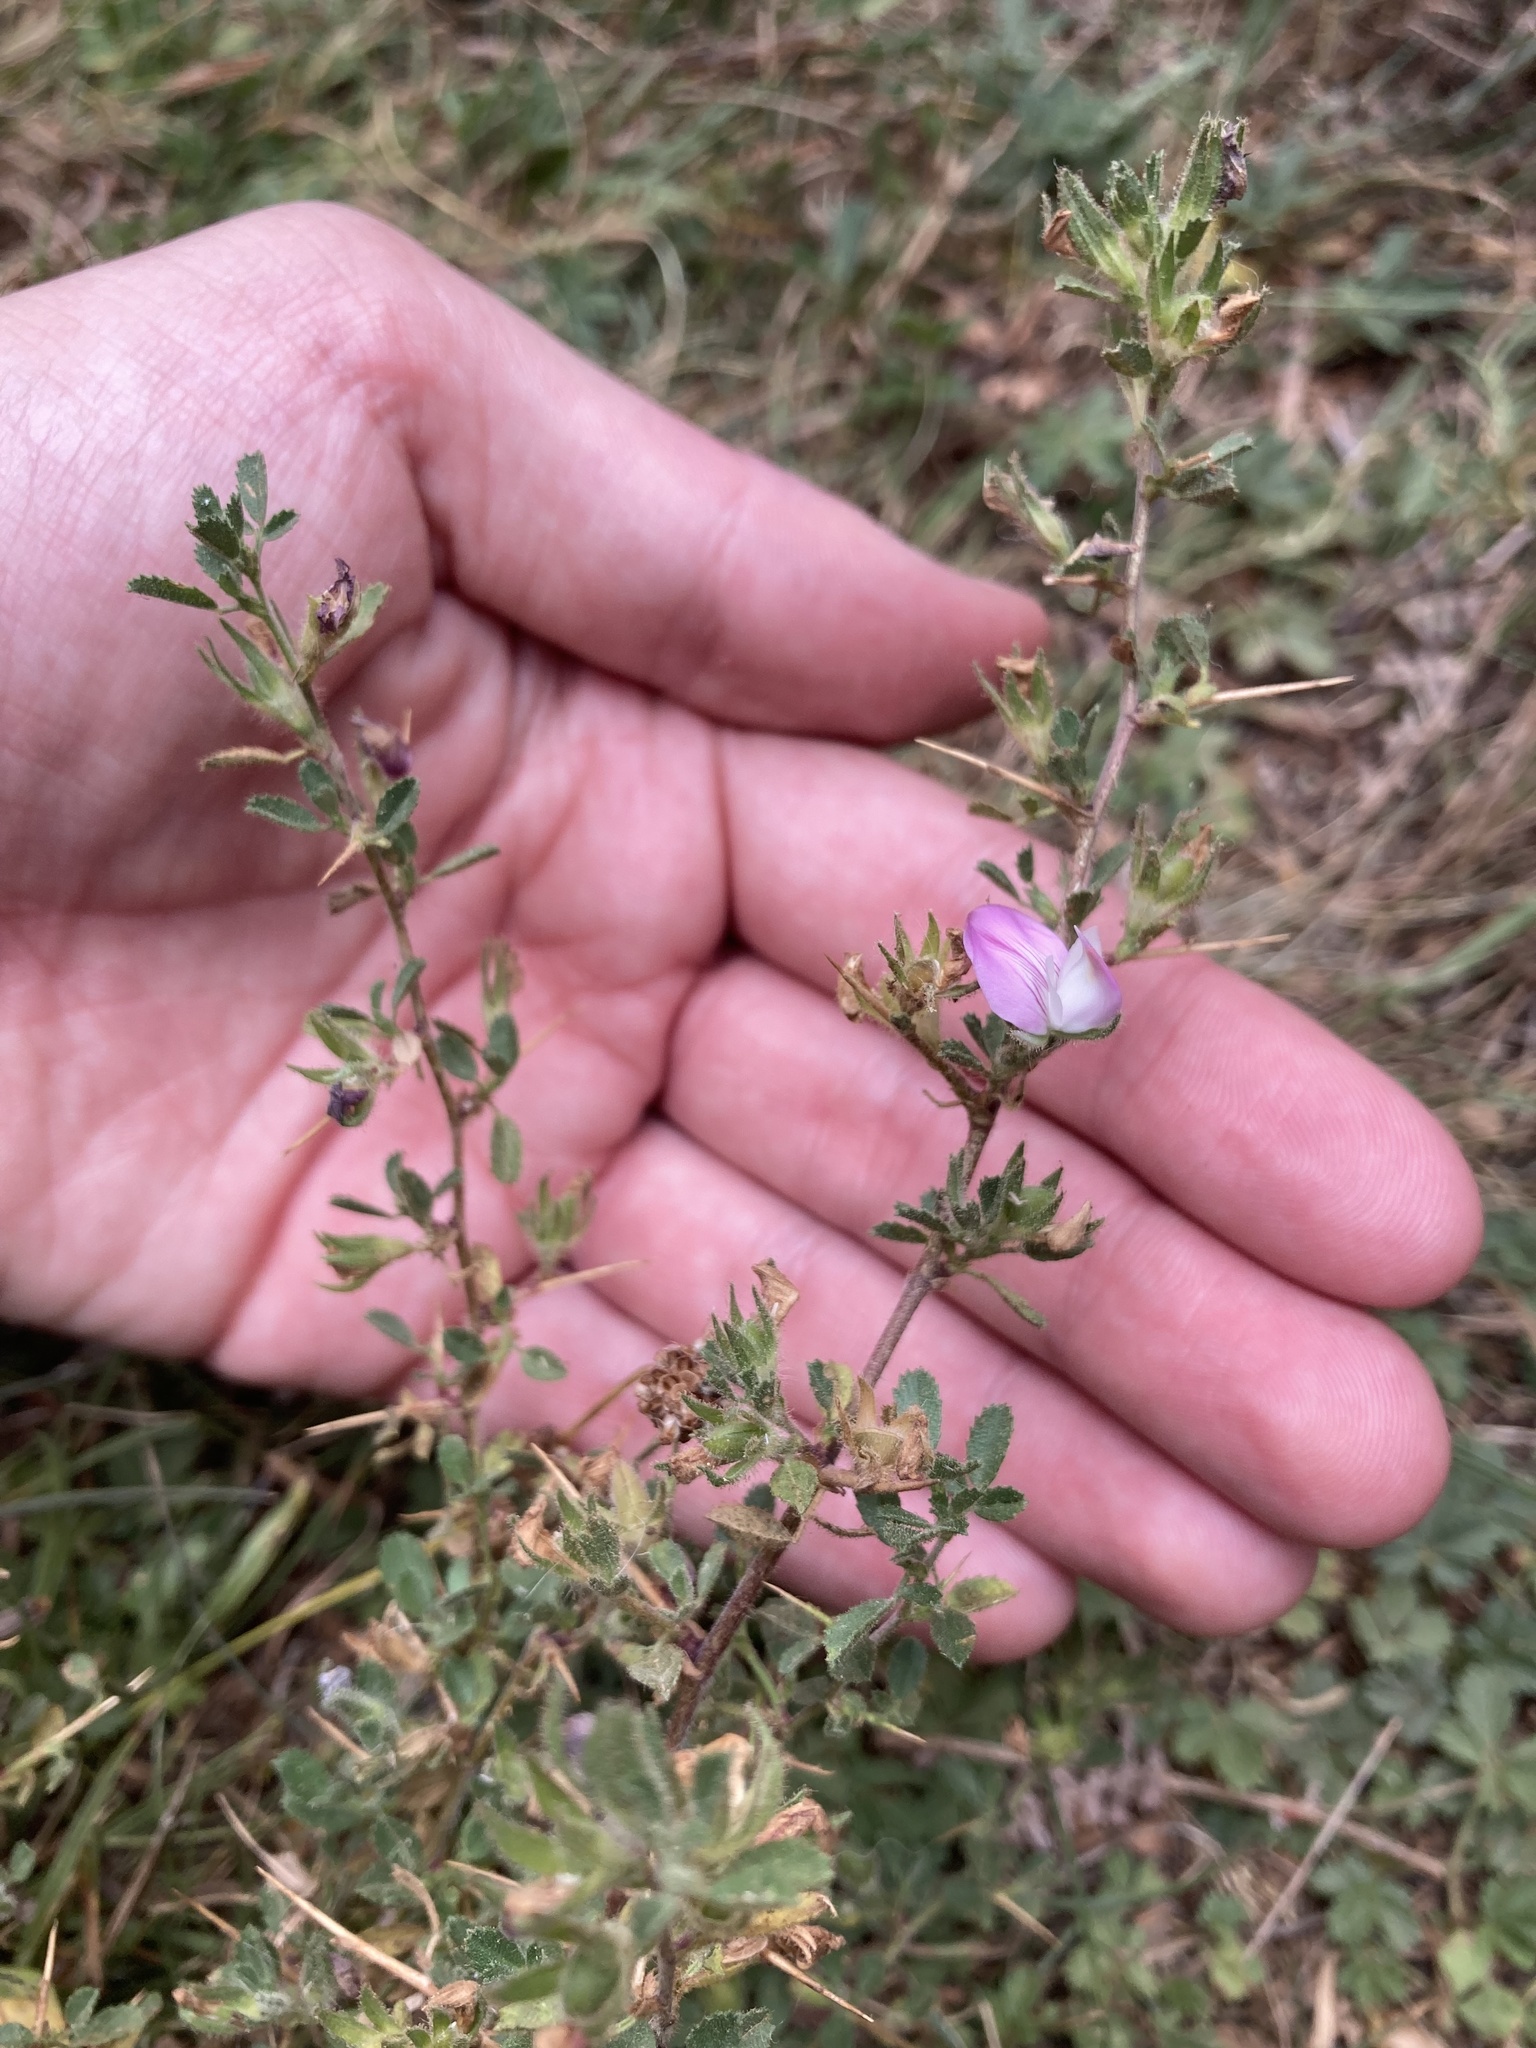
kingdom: Plantae
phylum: Tracheophyta
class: Magnoliopsida
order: Fabales
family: Fabaceae
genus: Ononis
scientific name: Ononis spinosa
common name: Spiny restharrow
